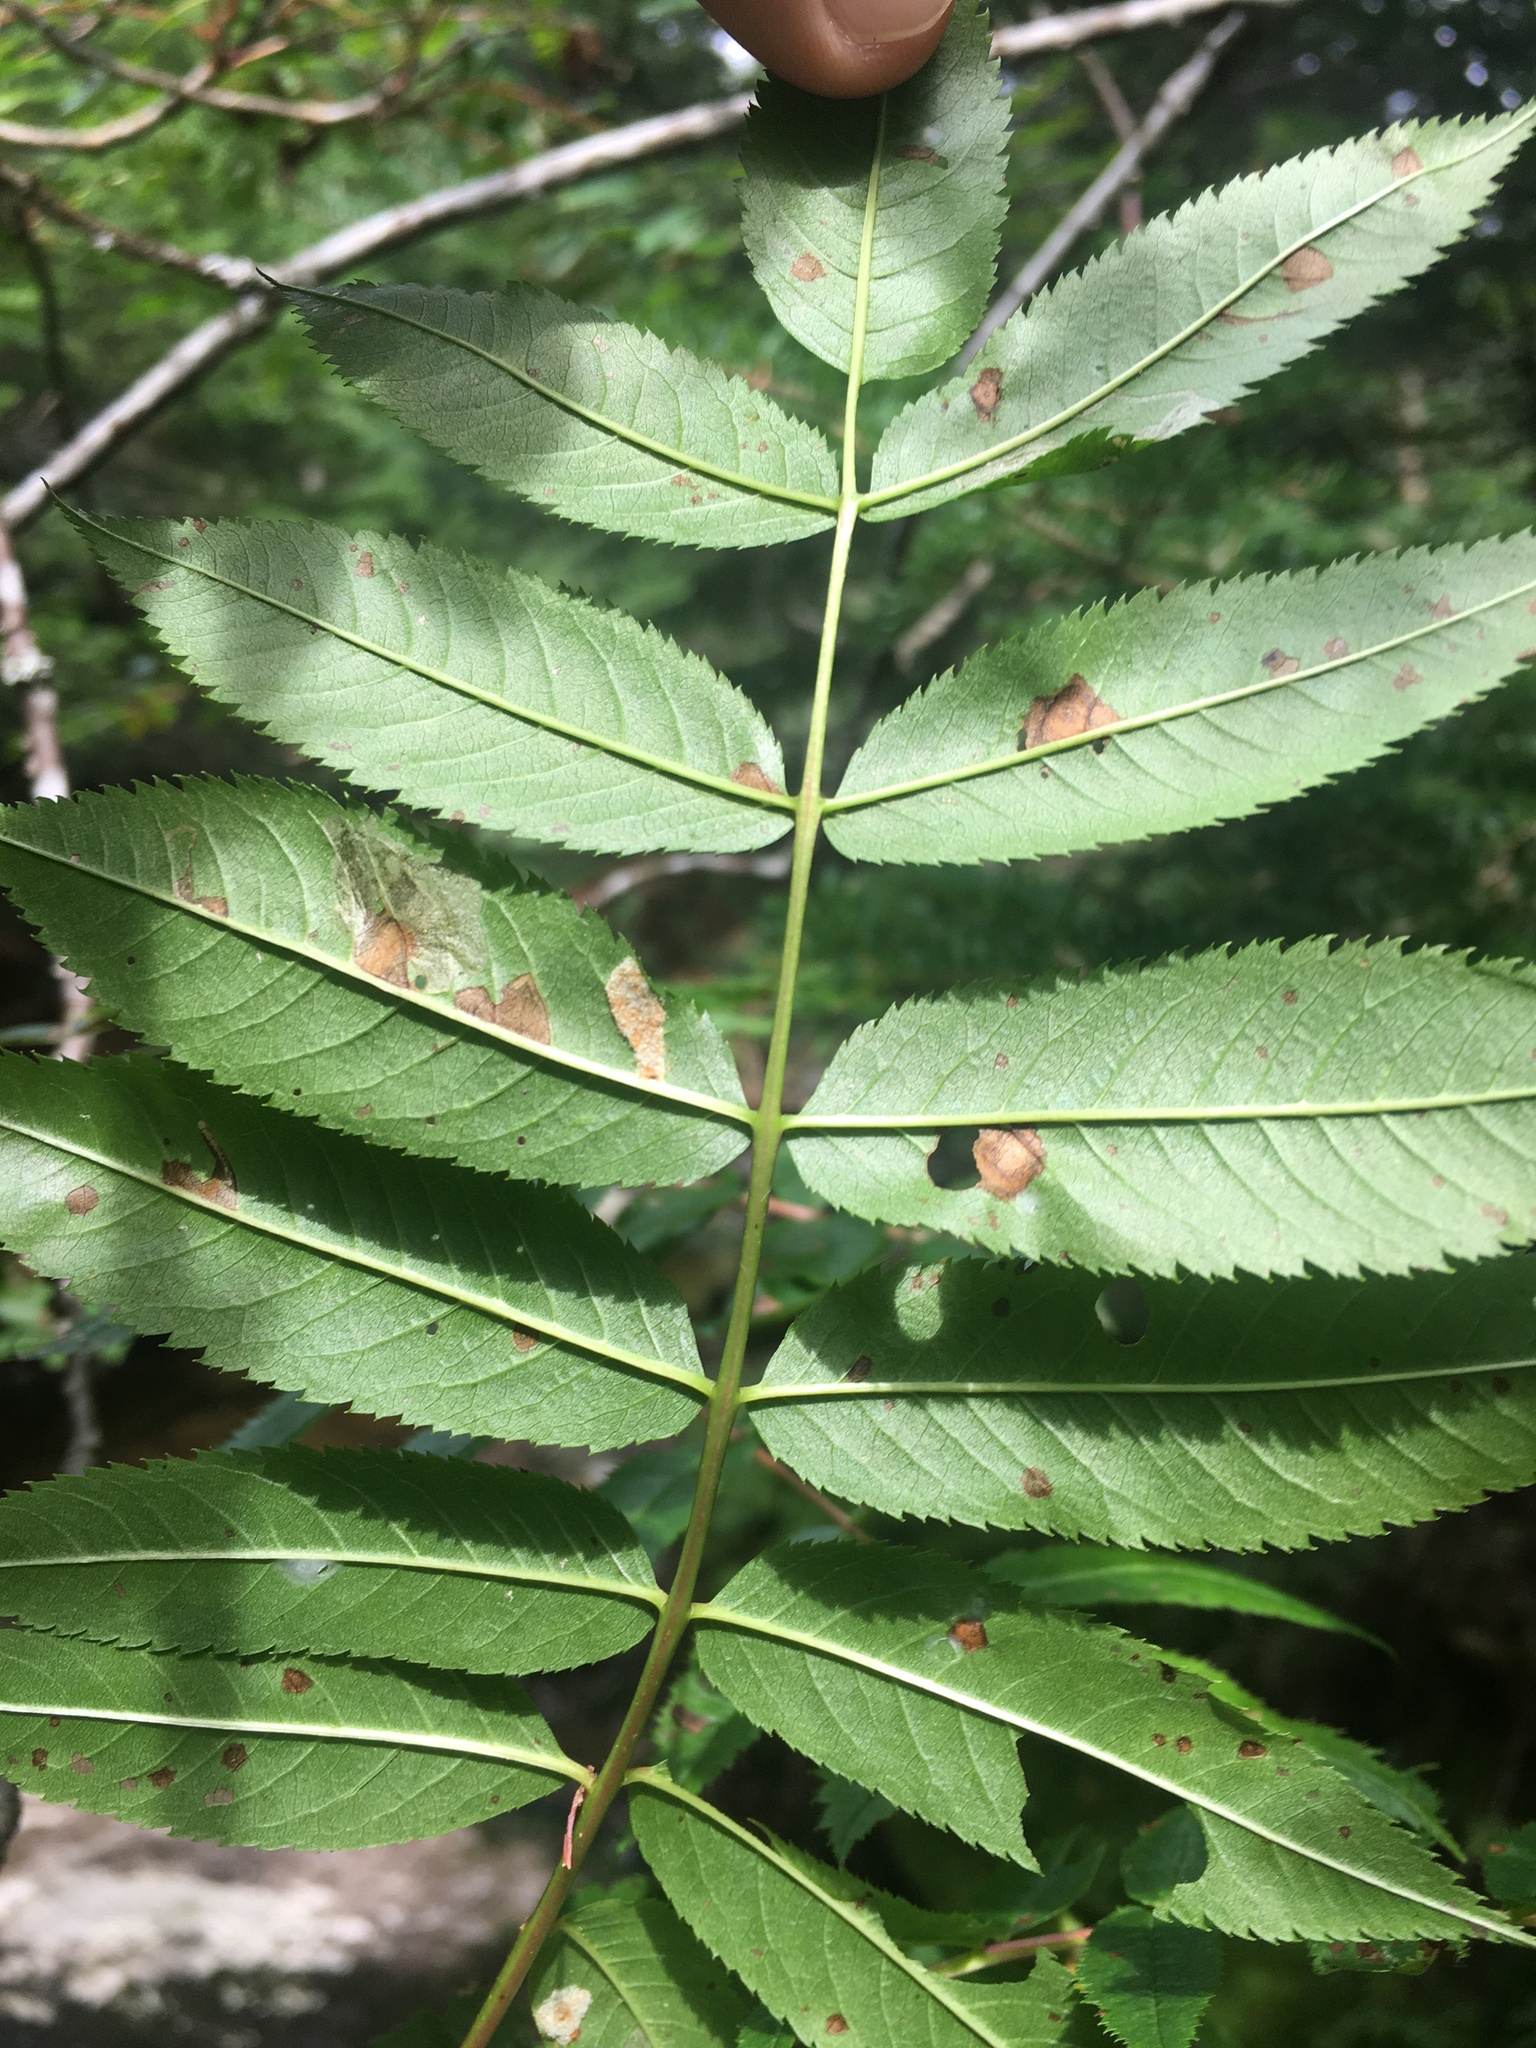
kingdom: Plantae
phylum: Tracheophyta
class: Magnoliopsida
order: Rosales
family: Rosaceae
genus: Sorbus
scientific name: Sorbus americana
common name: American mountain-ash
